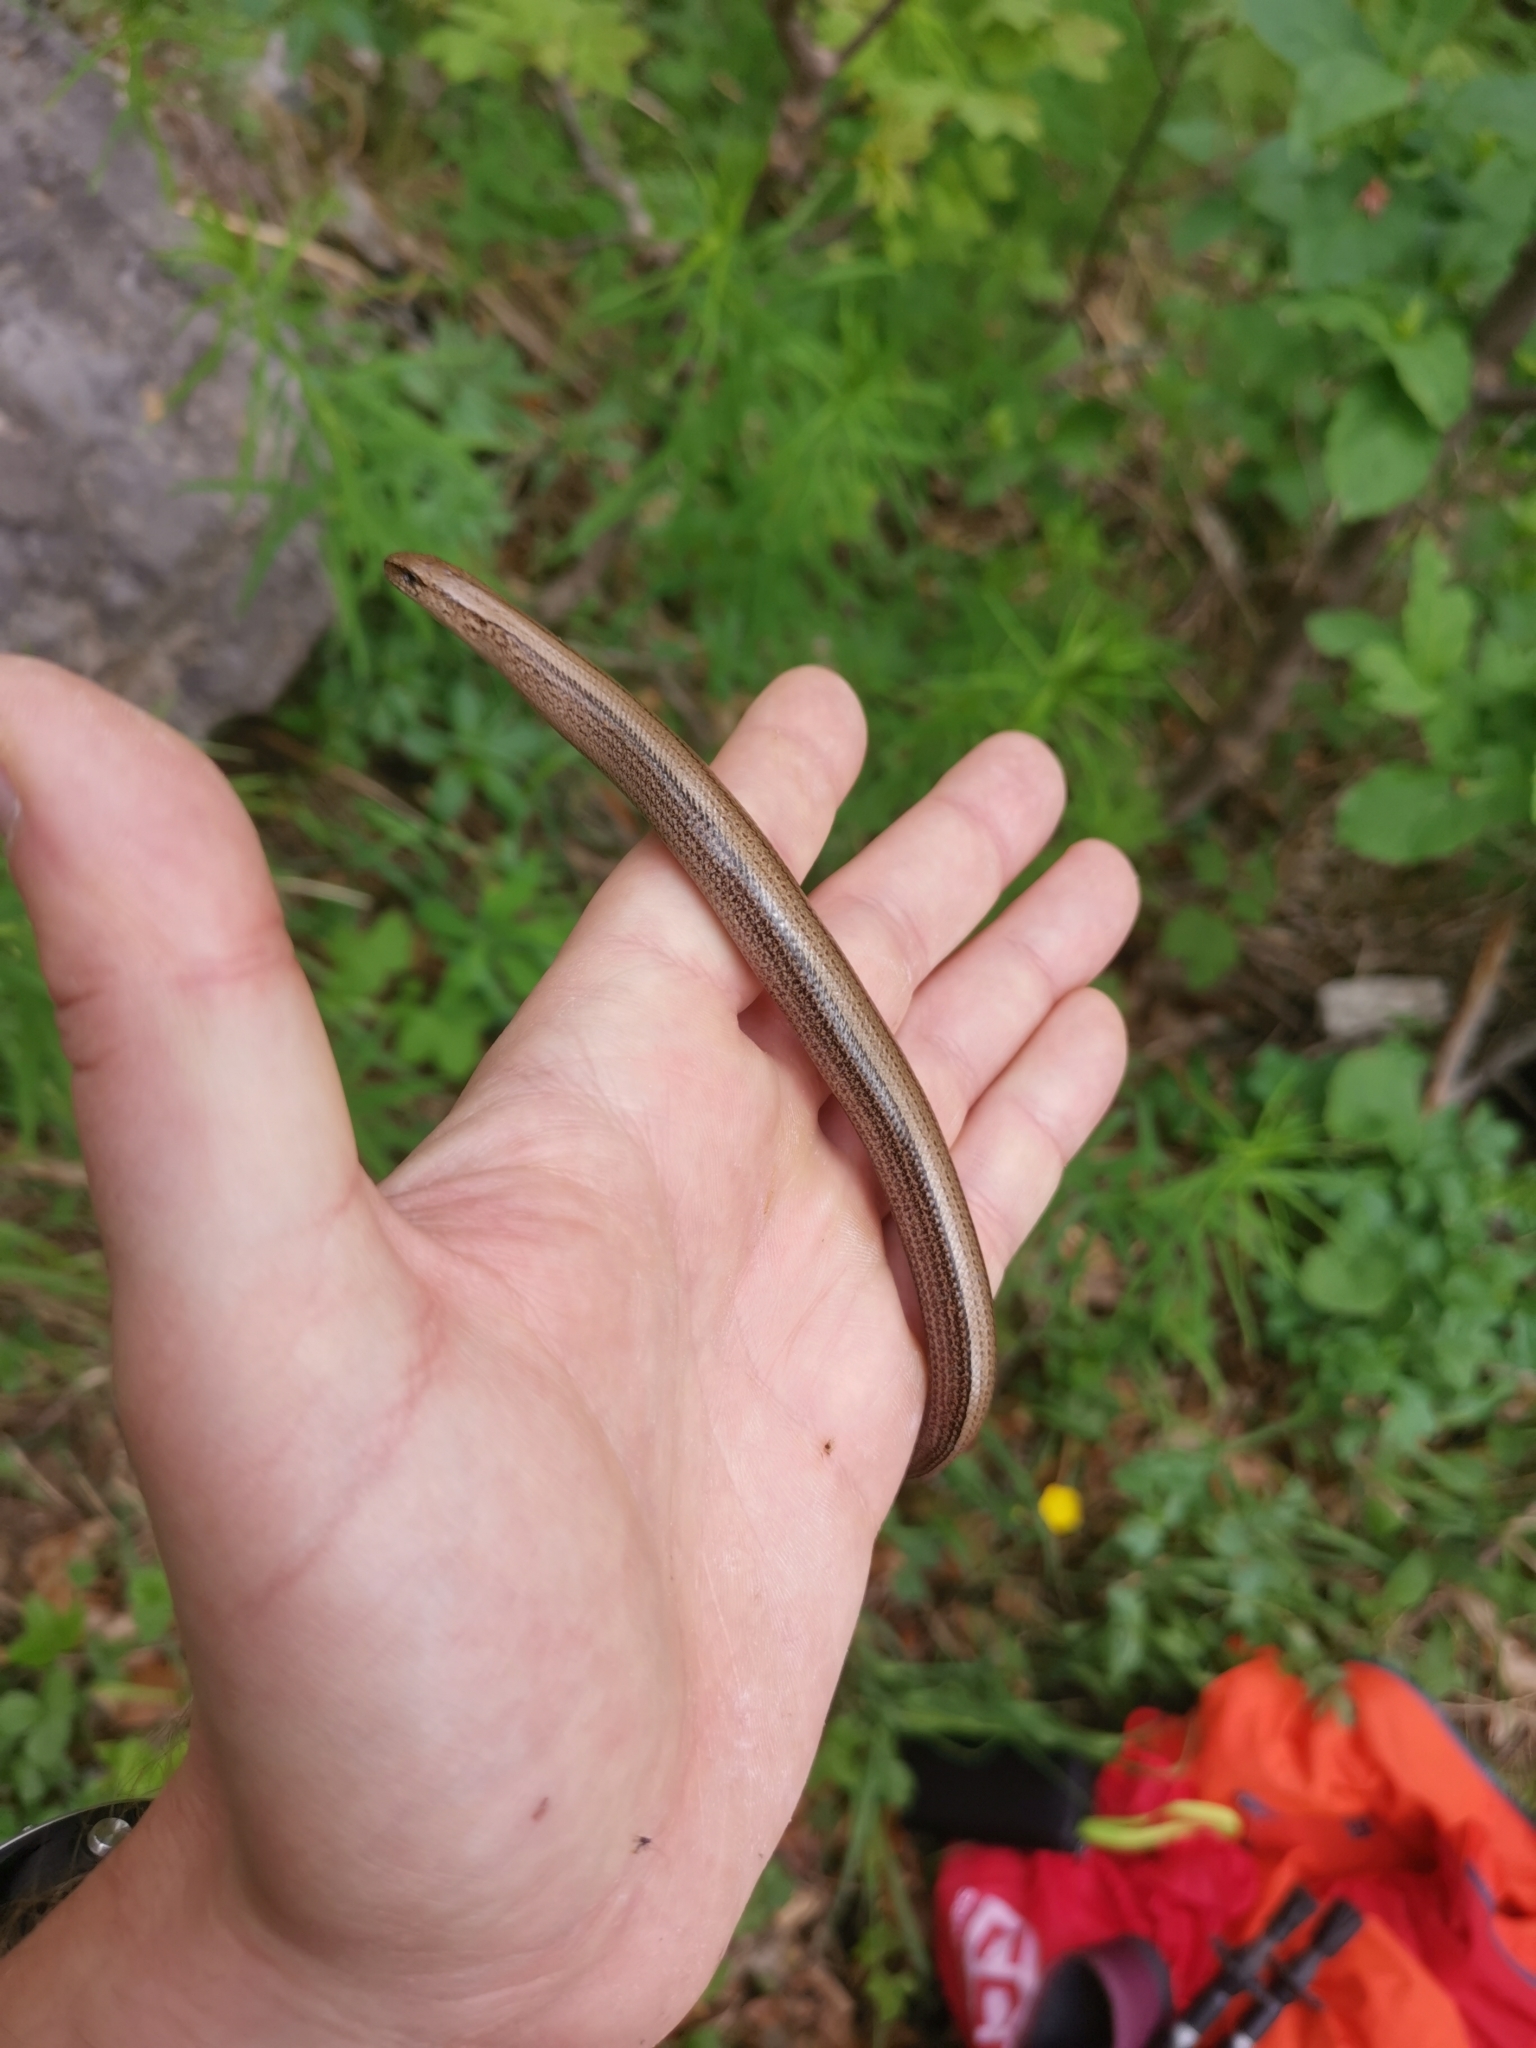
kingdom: Animalia
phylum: Chordata
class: Squamata
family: Anguidae
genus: Anguis
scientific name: Anguis fragilis
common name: Slow worm
